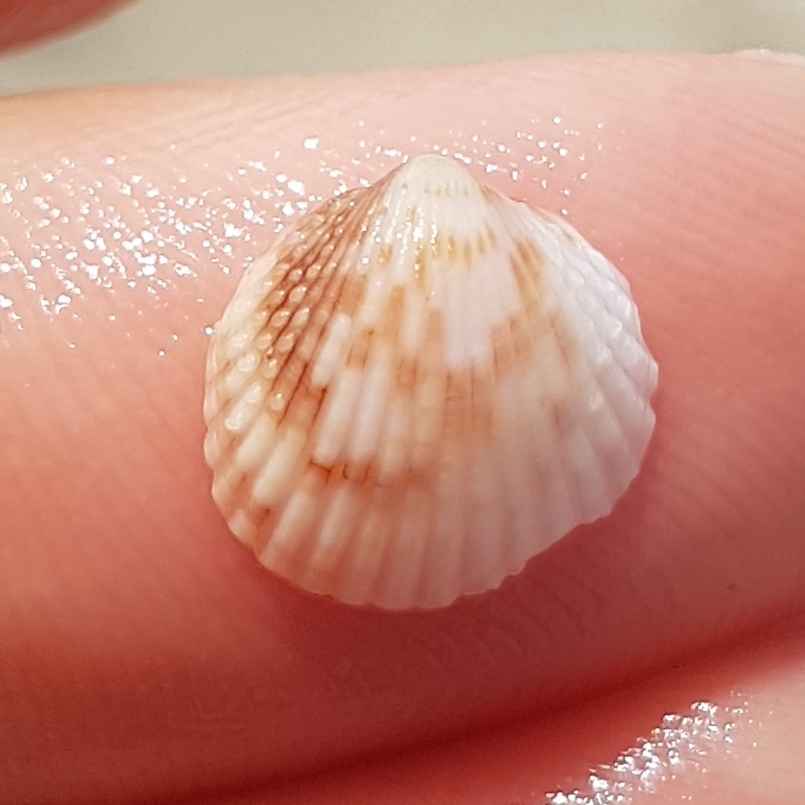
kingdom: Animalia
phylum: Mollusca
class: Bivalvia
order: Cardiida
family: Cardiidae
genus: Papillicardium
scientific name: Papillicardium papillosum
